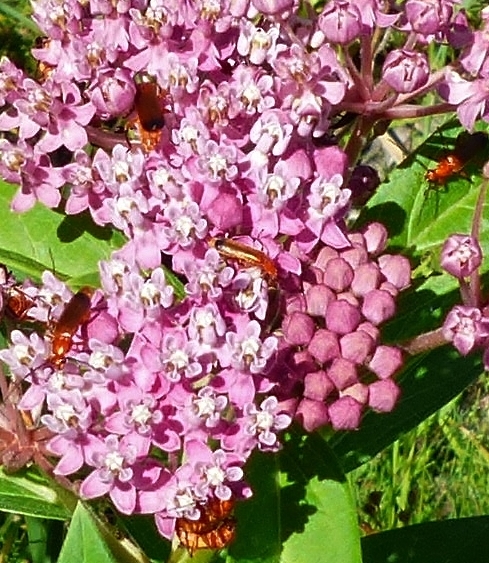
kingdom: Animalia
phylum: Arthropoda
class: Insecta
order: Coleoptera
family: Cantharidae
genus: Rhagonycha
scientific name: Rhagonycha fulva
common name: Common red soldier beetle
